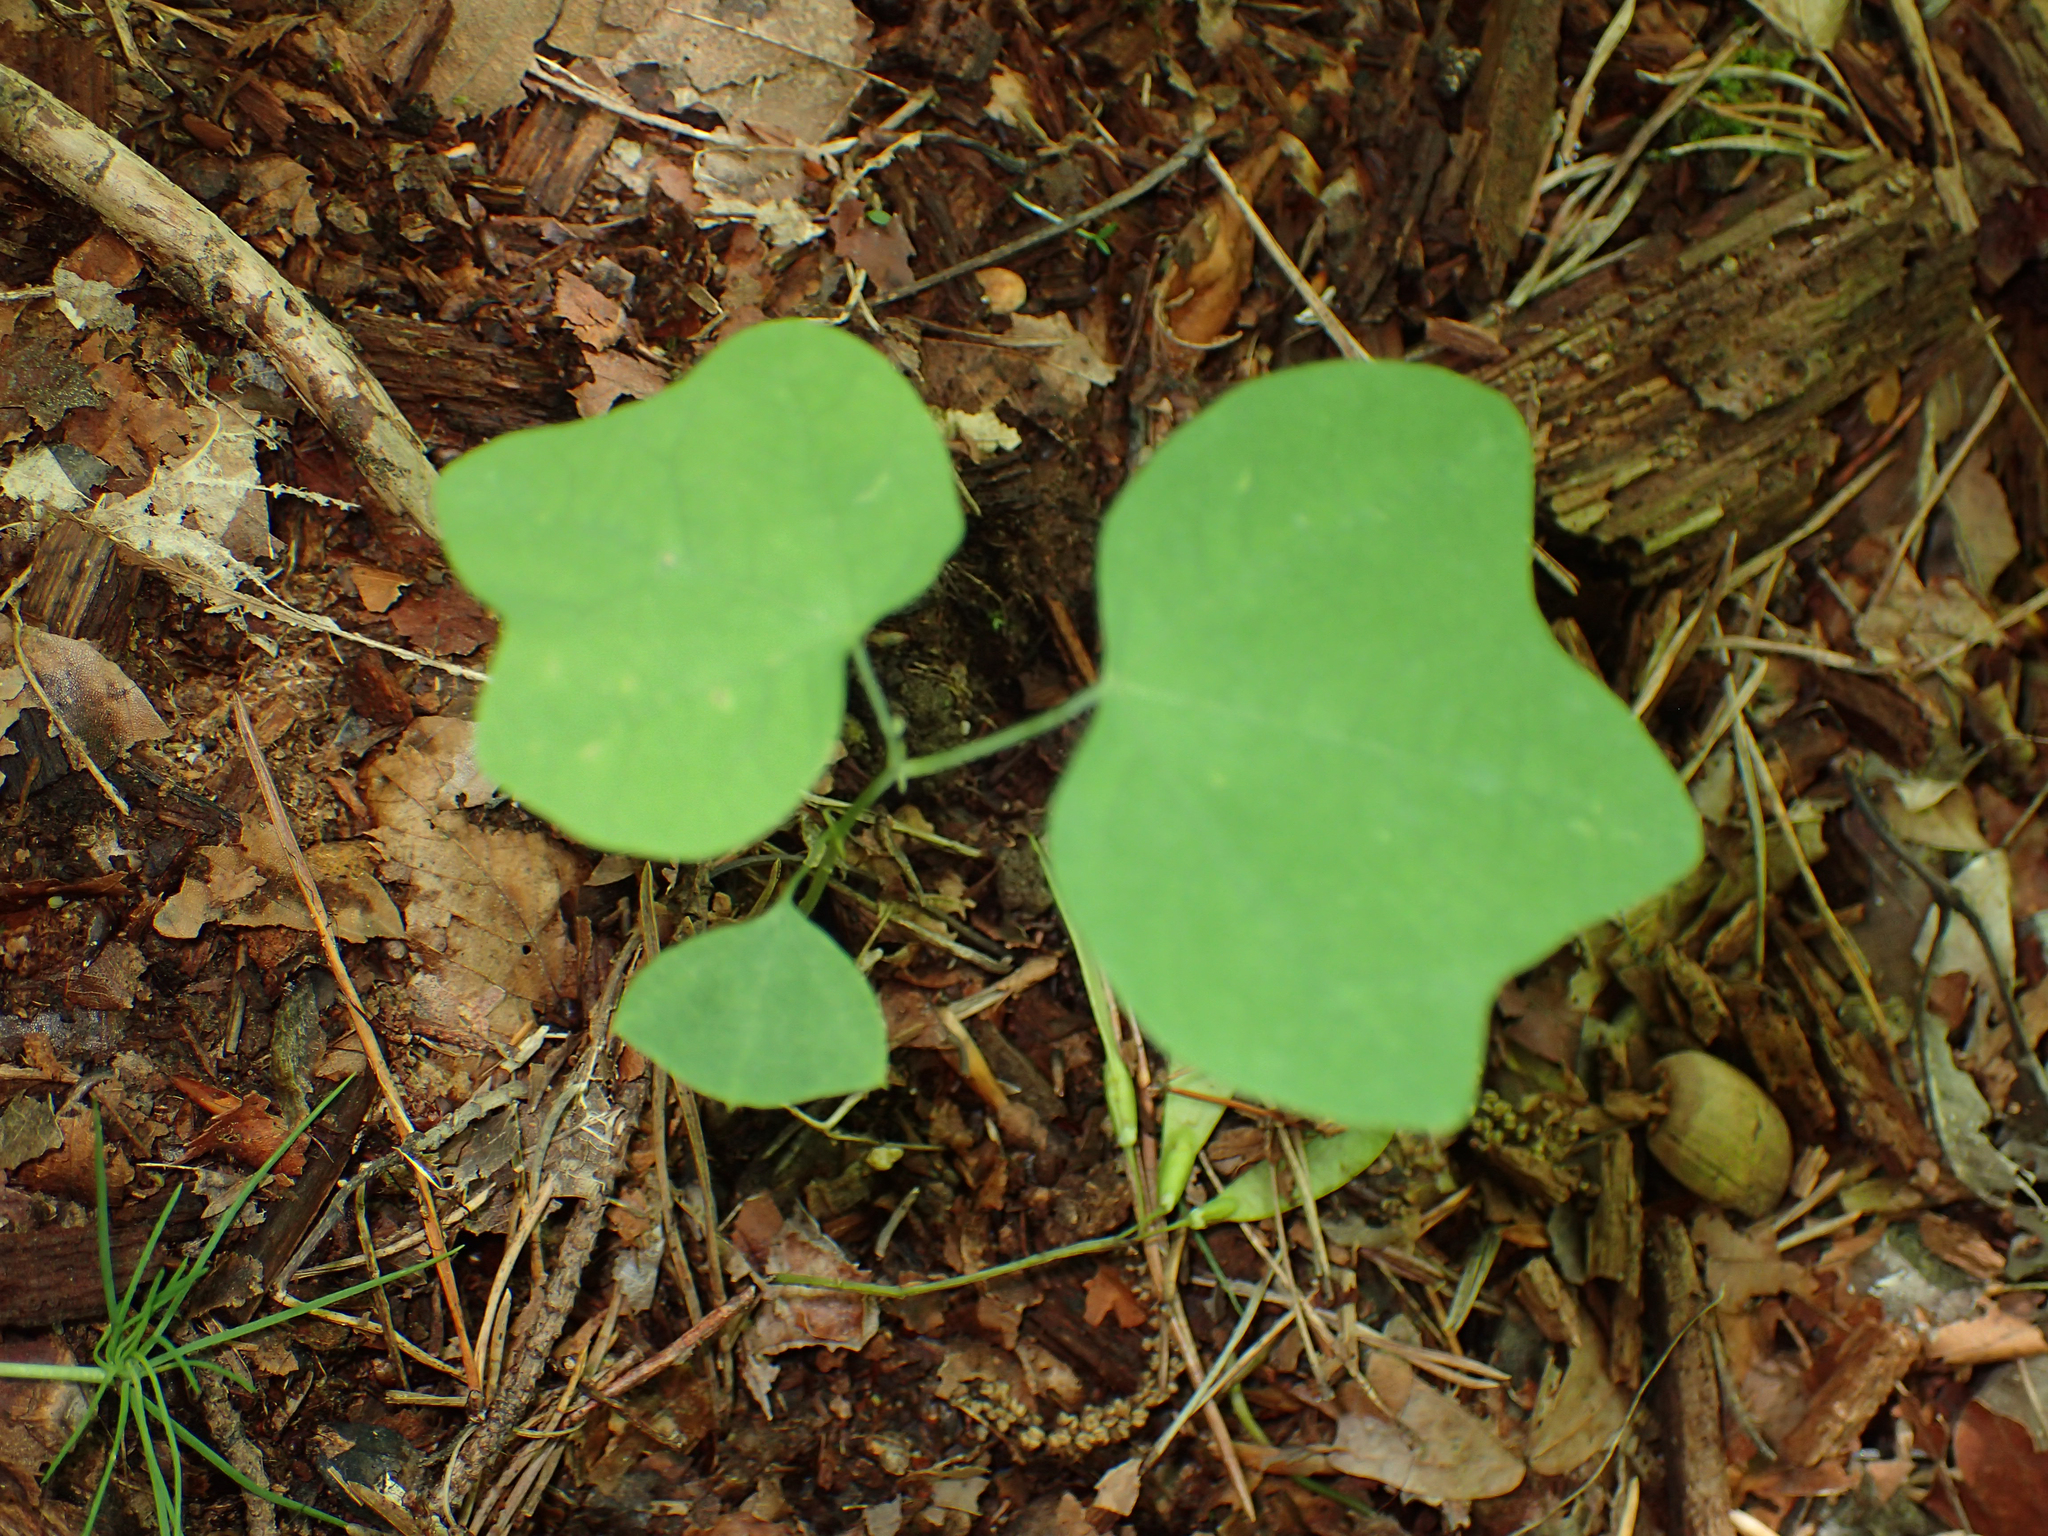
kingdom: Plantae
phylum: Tracheophyta
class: Magnoliopsida
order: Malpighiales
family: Passifloraceae
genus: Passiflora
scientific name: Passiflora lutea
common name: Yellow passionflower
